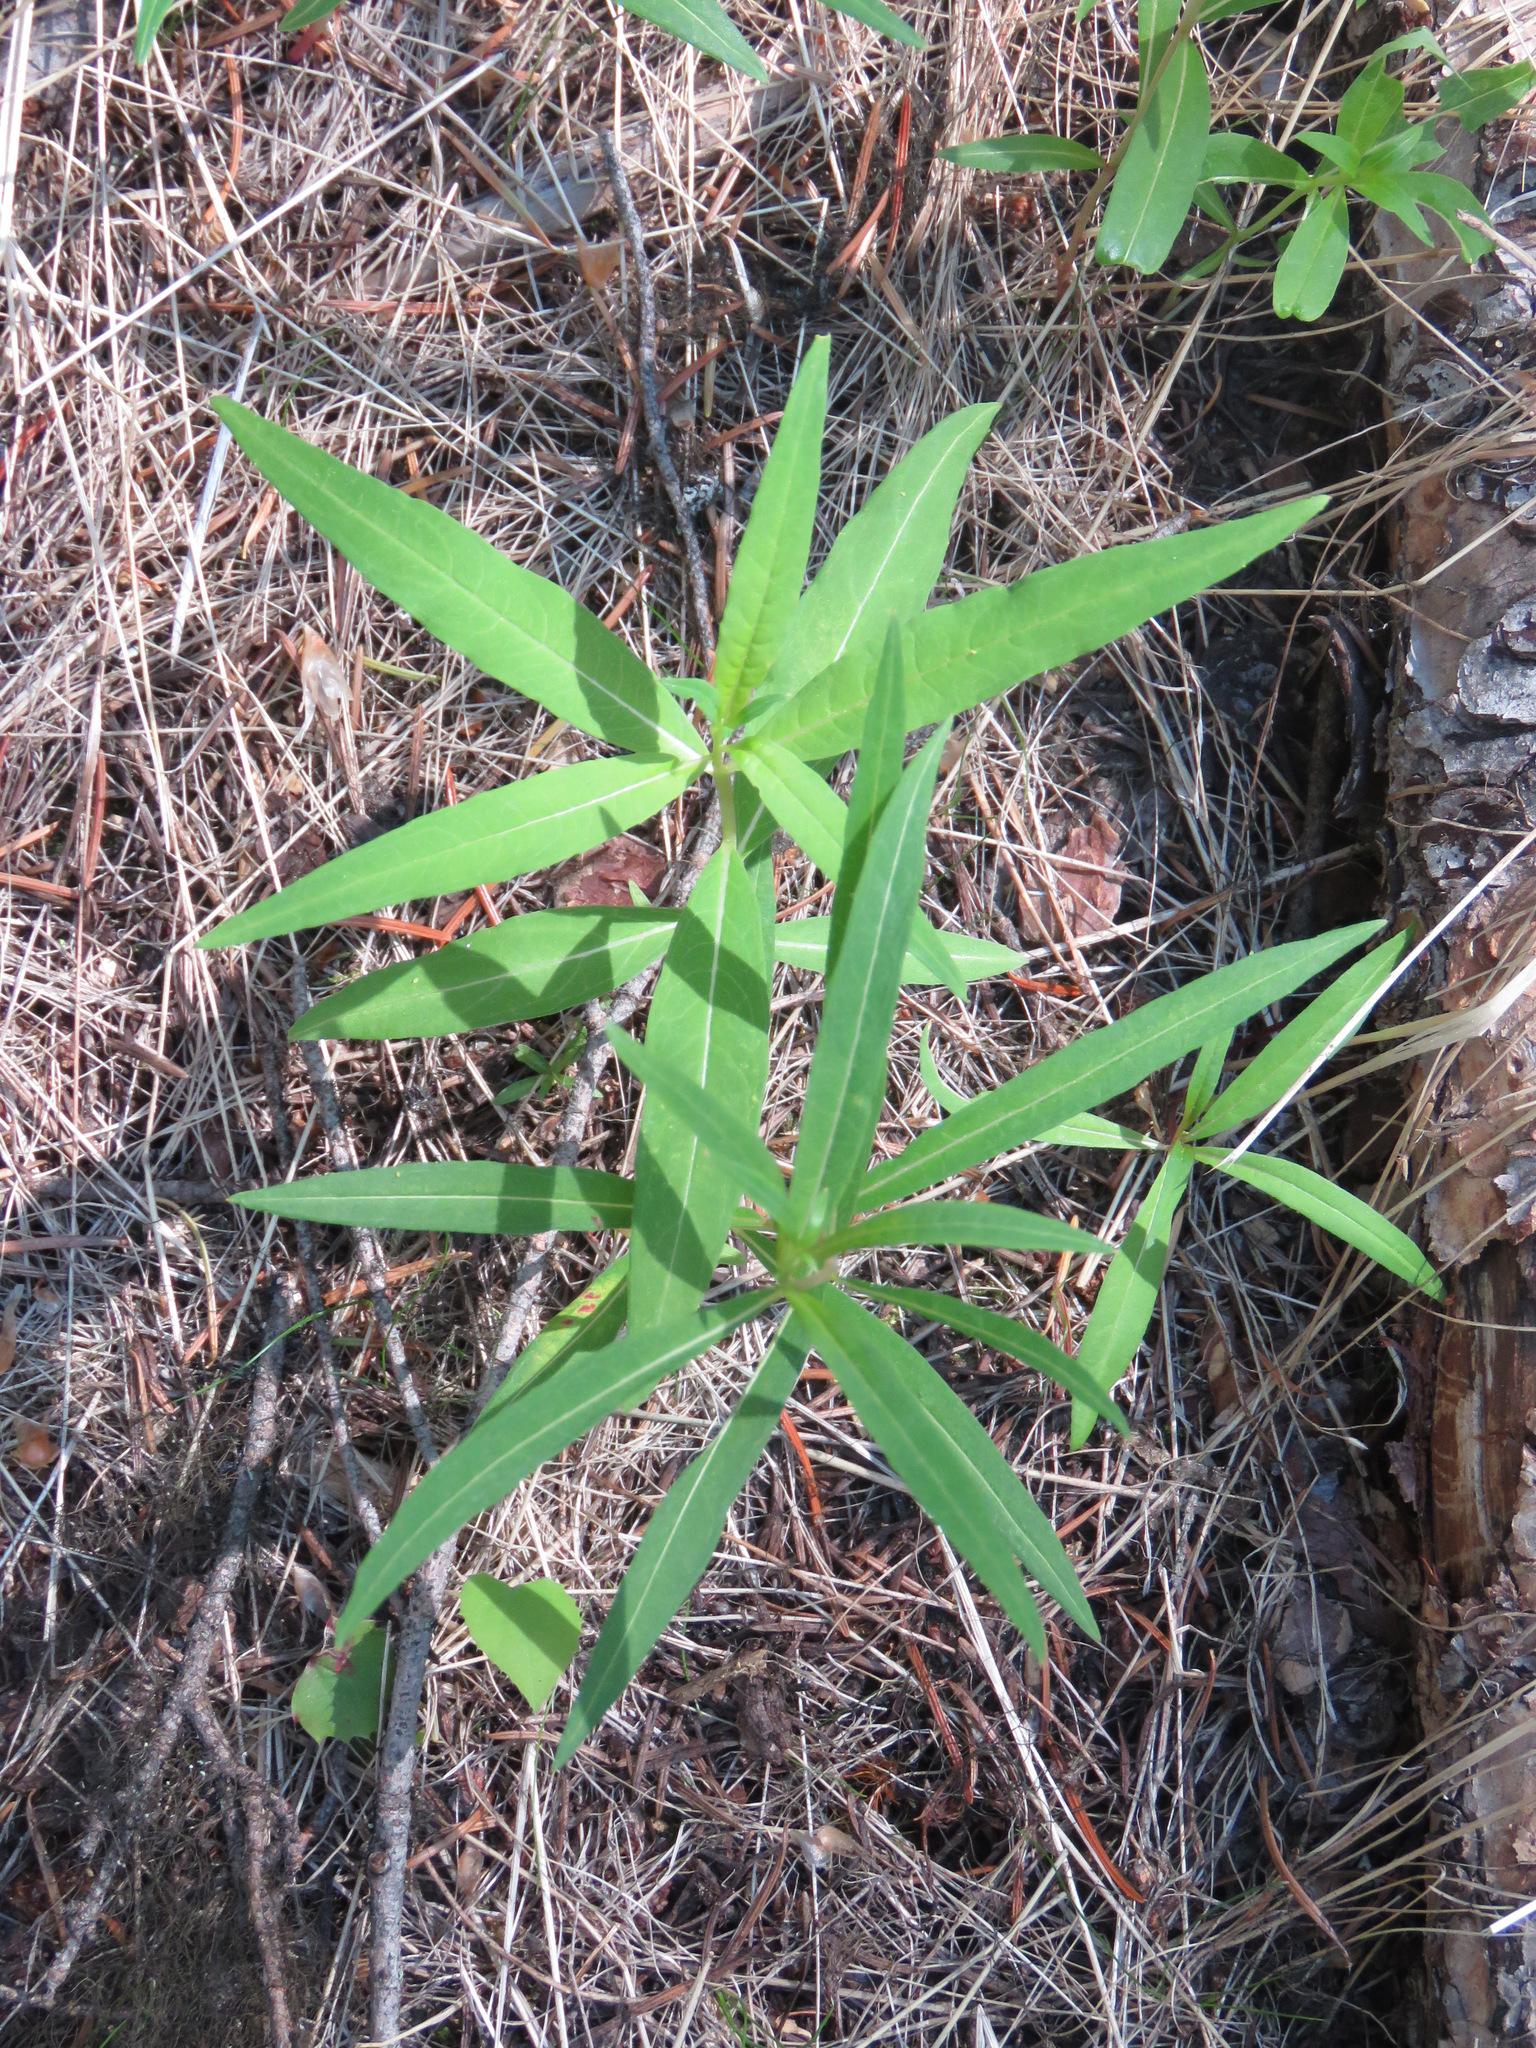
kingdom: Plantae
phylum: Tracheophyta
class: Magnoliopsida
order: Myrtales
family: Onagraceae
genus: Chamaenerion
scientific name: Chamaenerion angustifolium
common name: Fireweed
